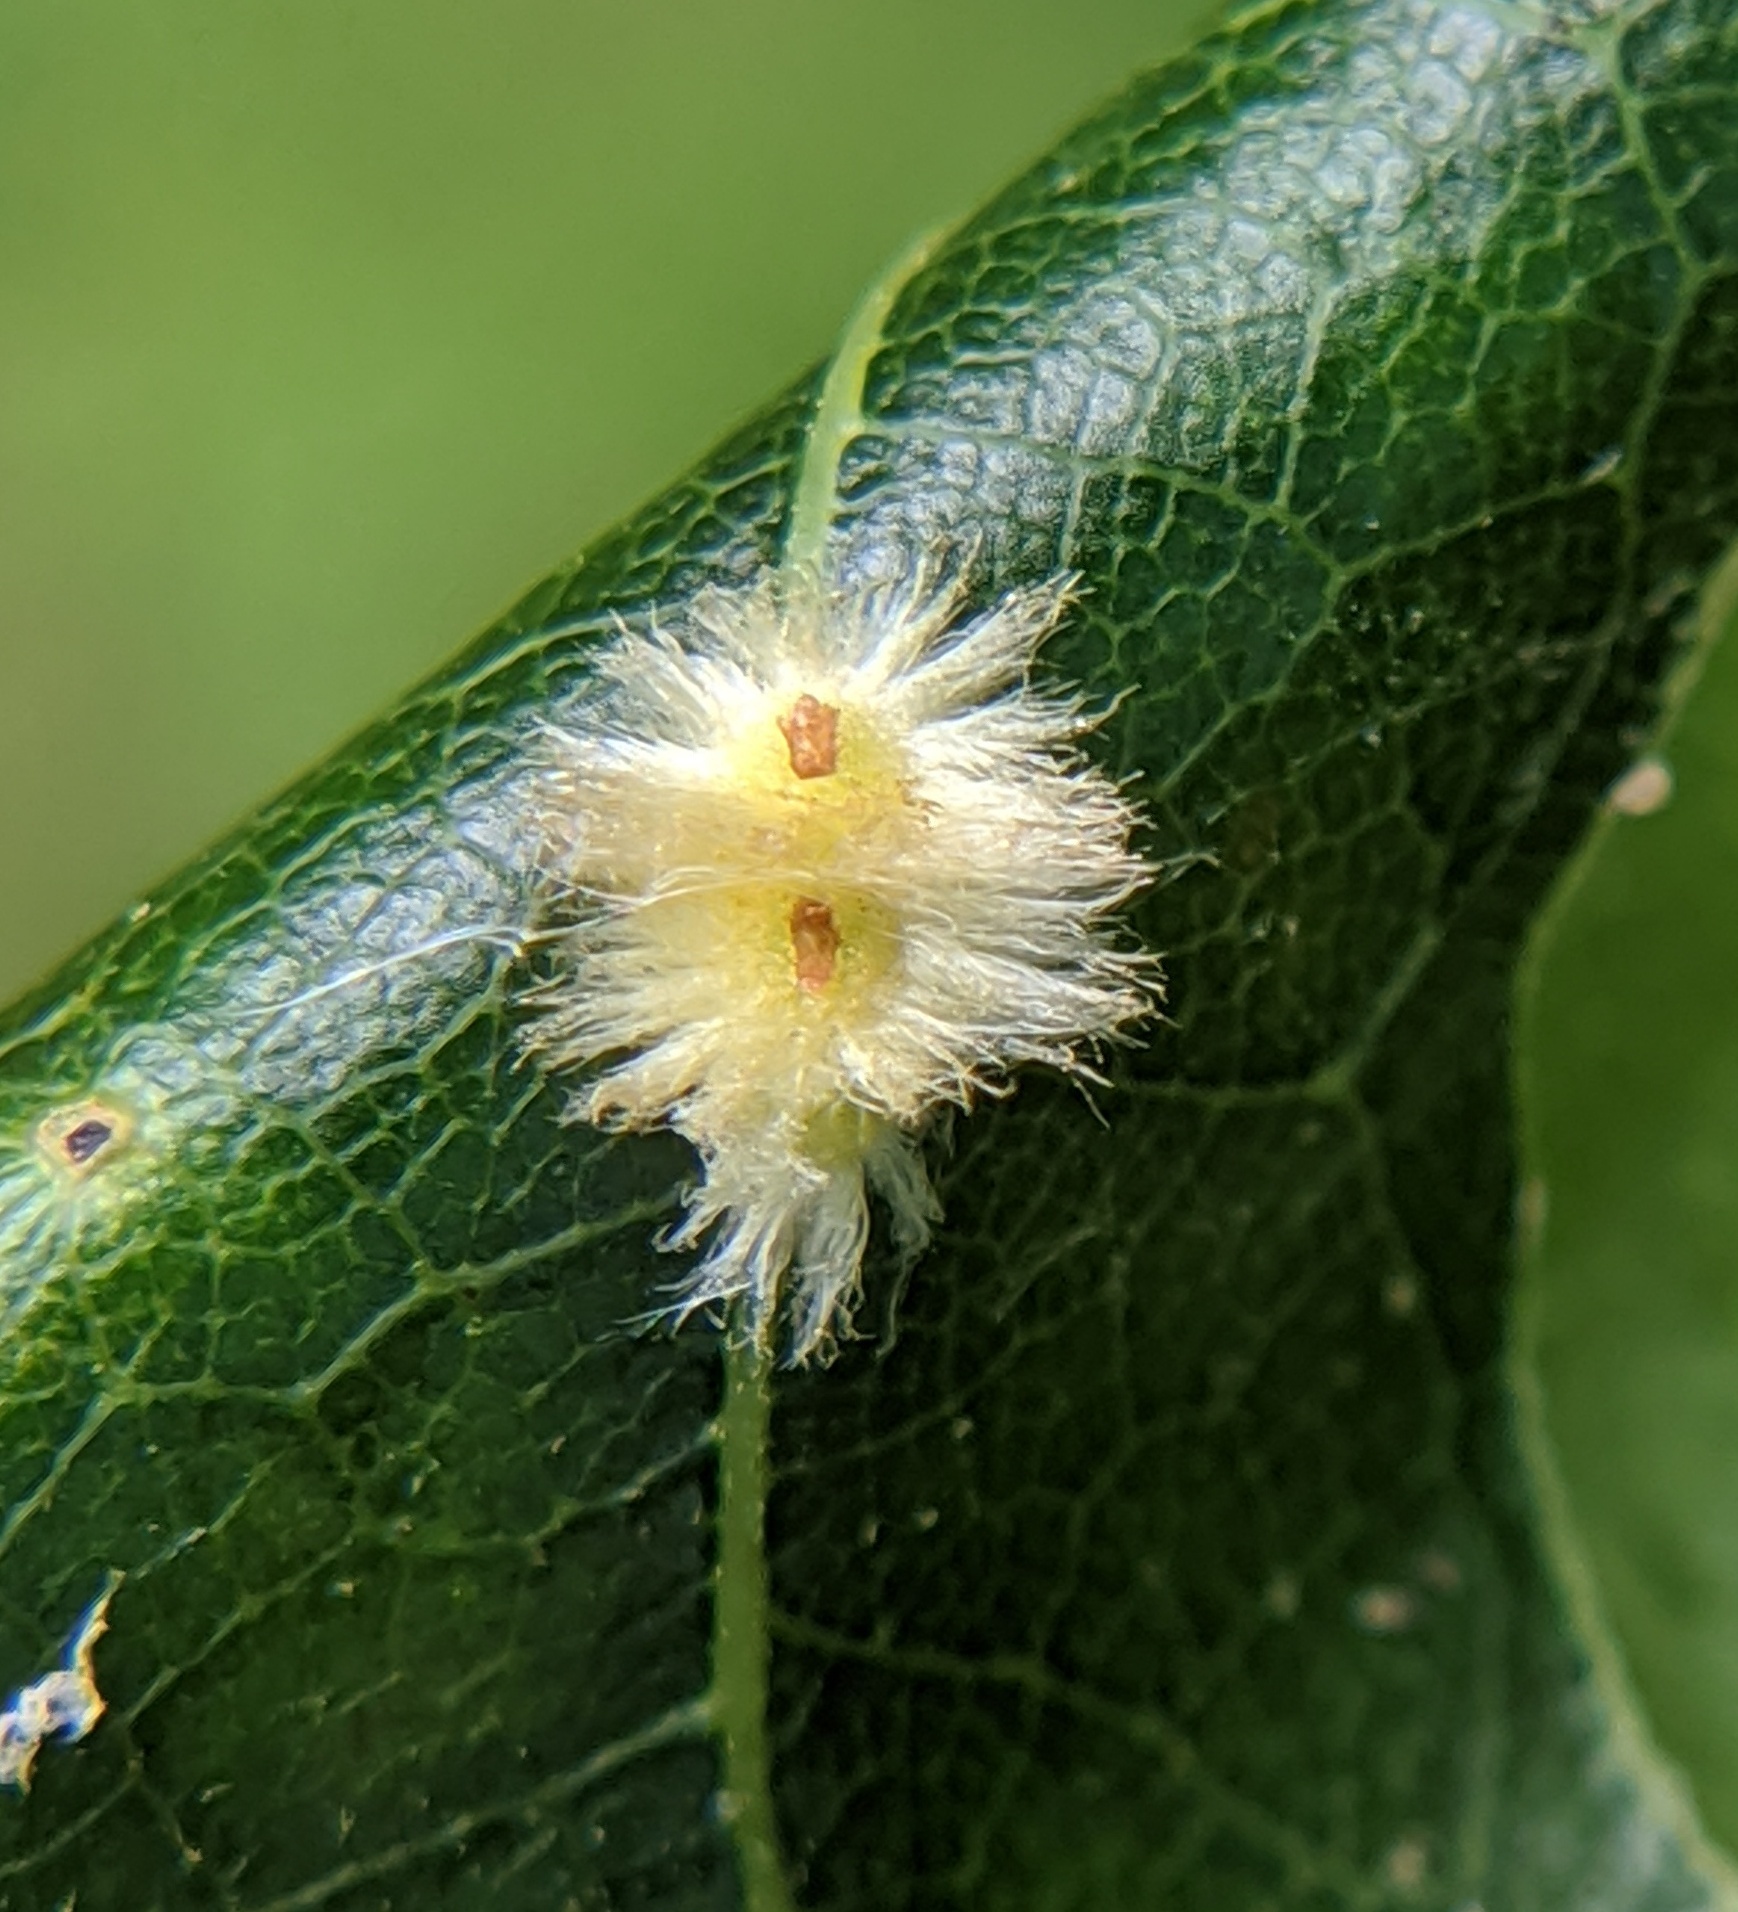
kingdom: Animalia
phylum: Arthropoda
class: Insecta
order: Hymenoptera
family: Cynipidae
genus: Callirhytis
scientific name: Callirhytis
